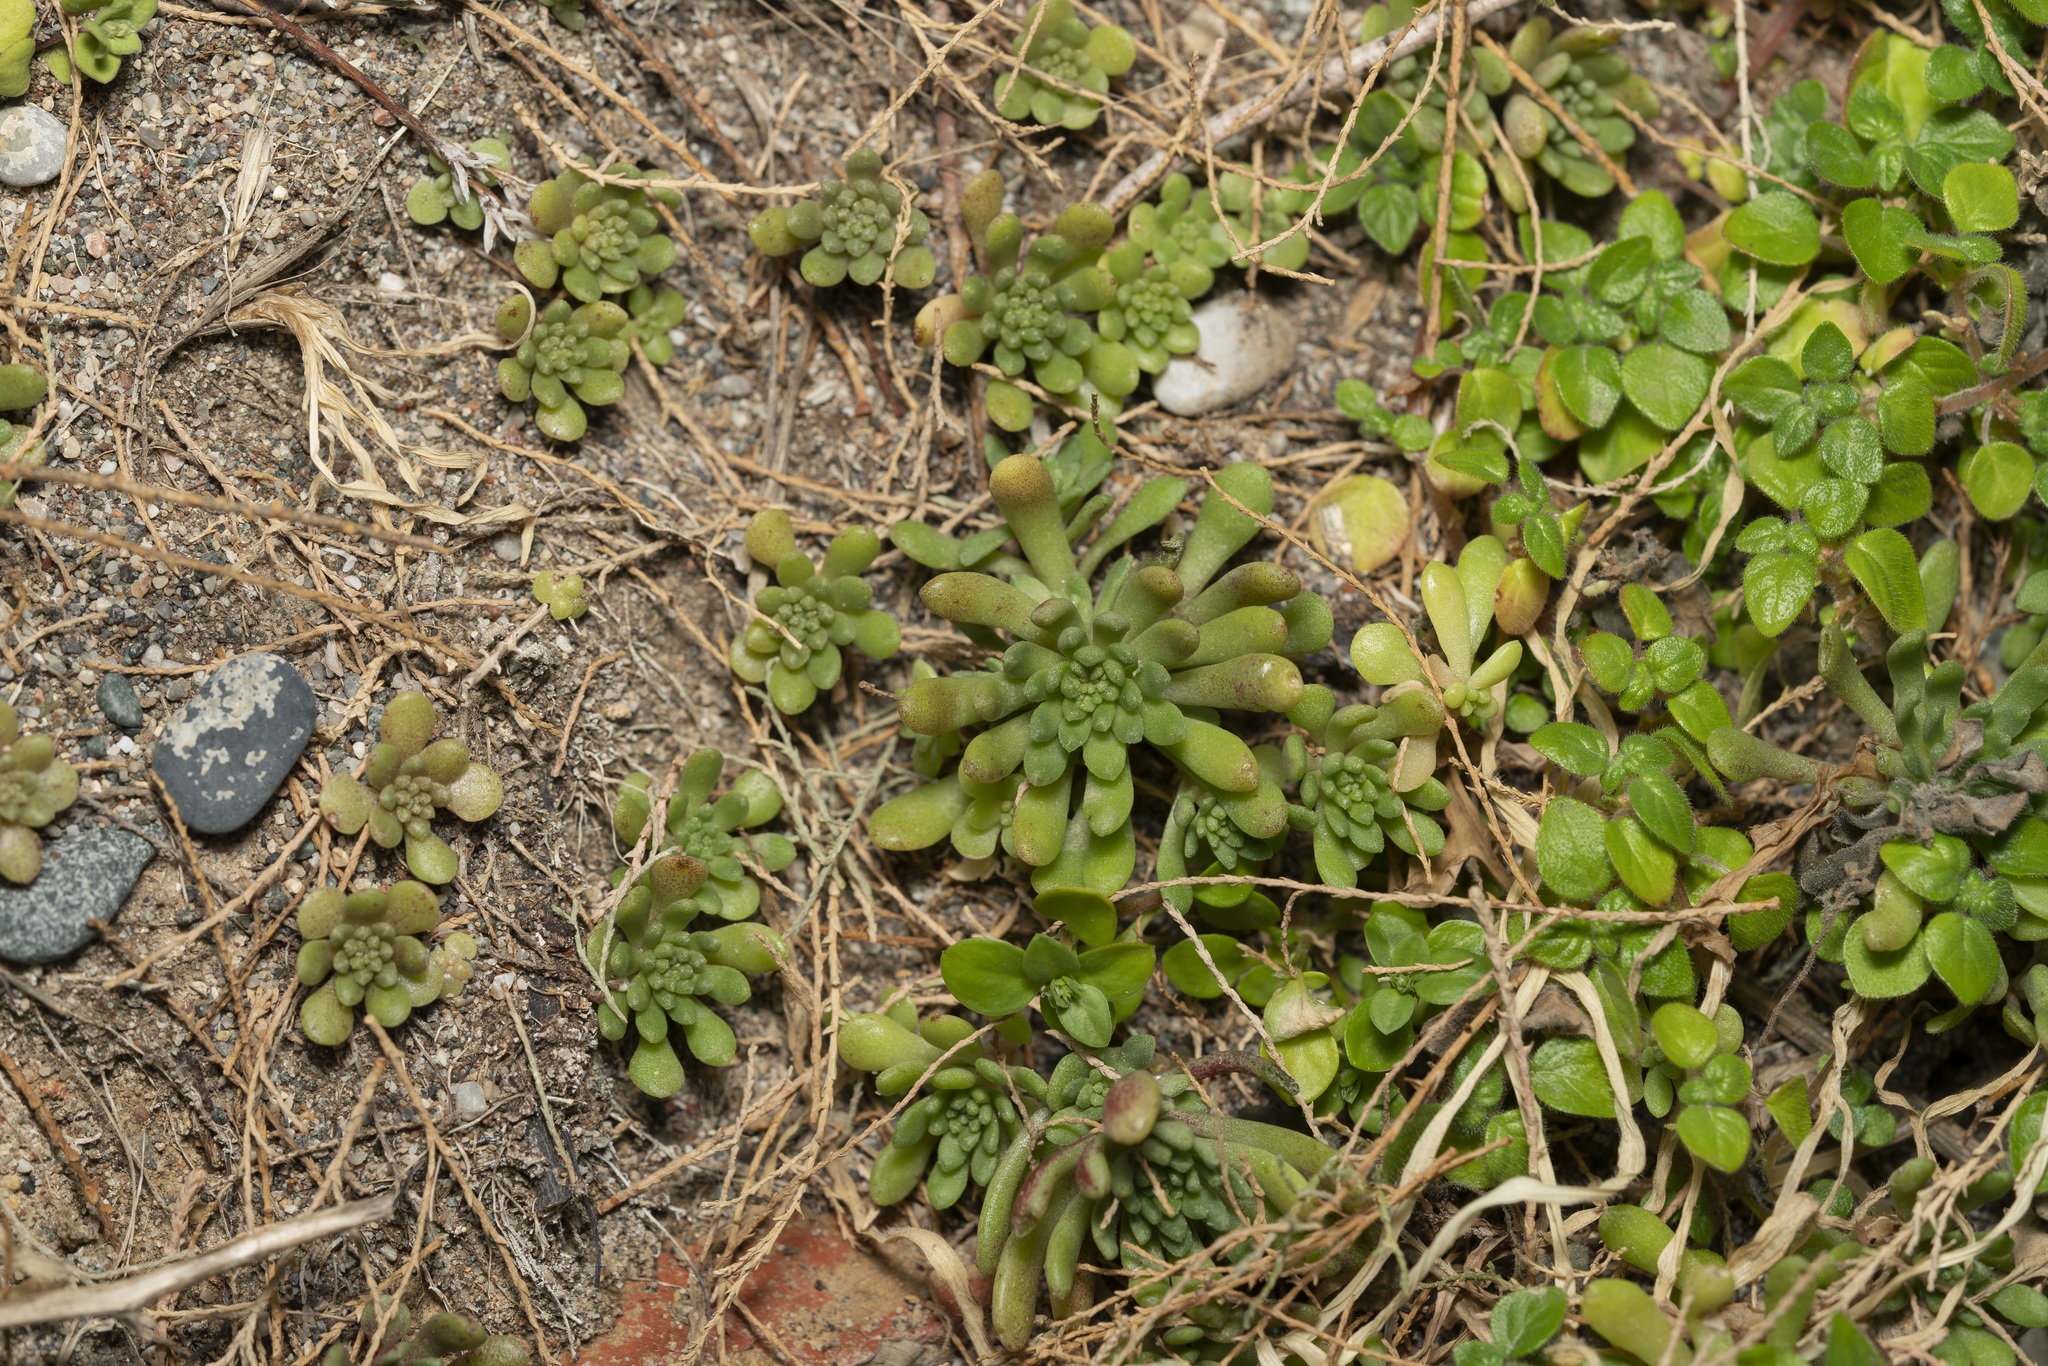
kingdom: Plantae
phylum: Tracheophyta
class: Magnoliopsida
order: Saxifragales
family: Crassulaceae
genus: Sedum
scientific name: Sedum litoreum
